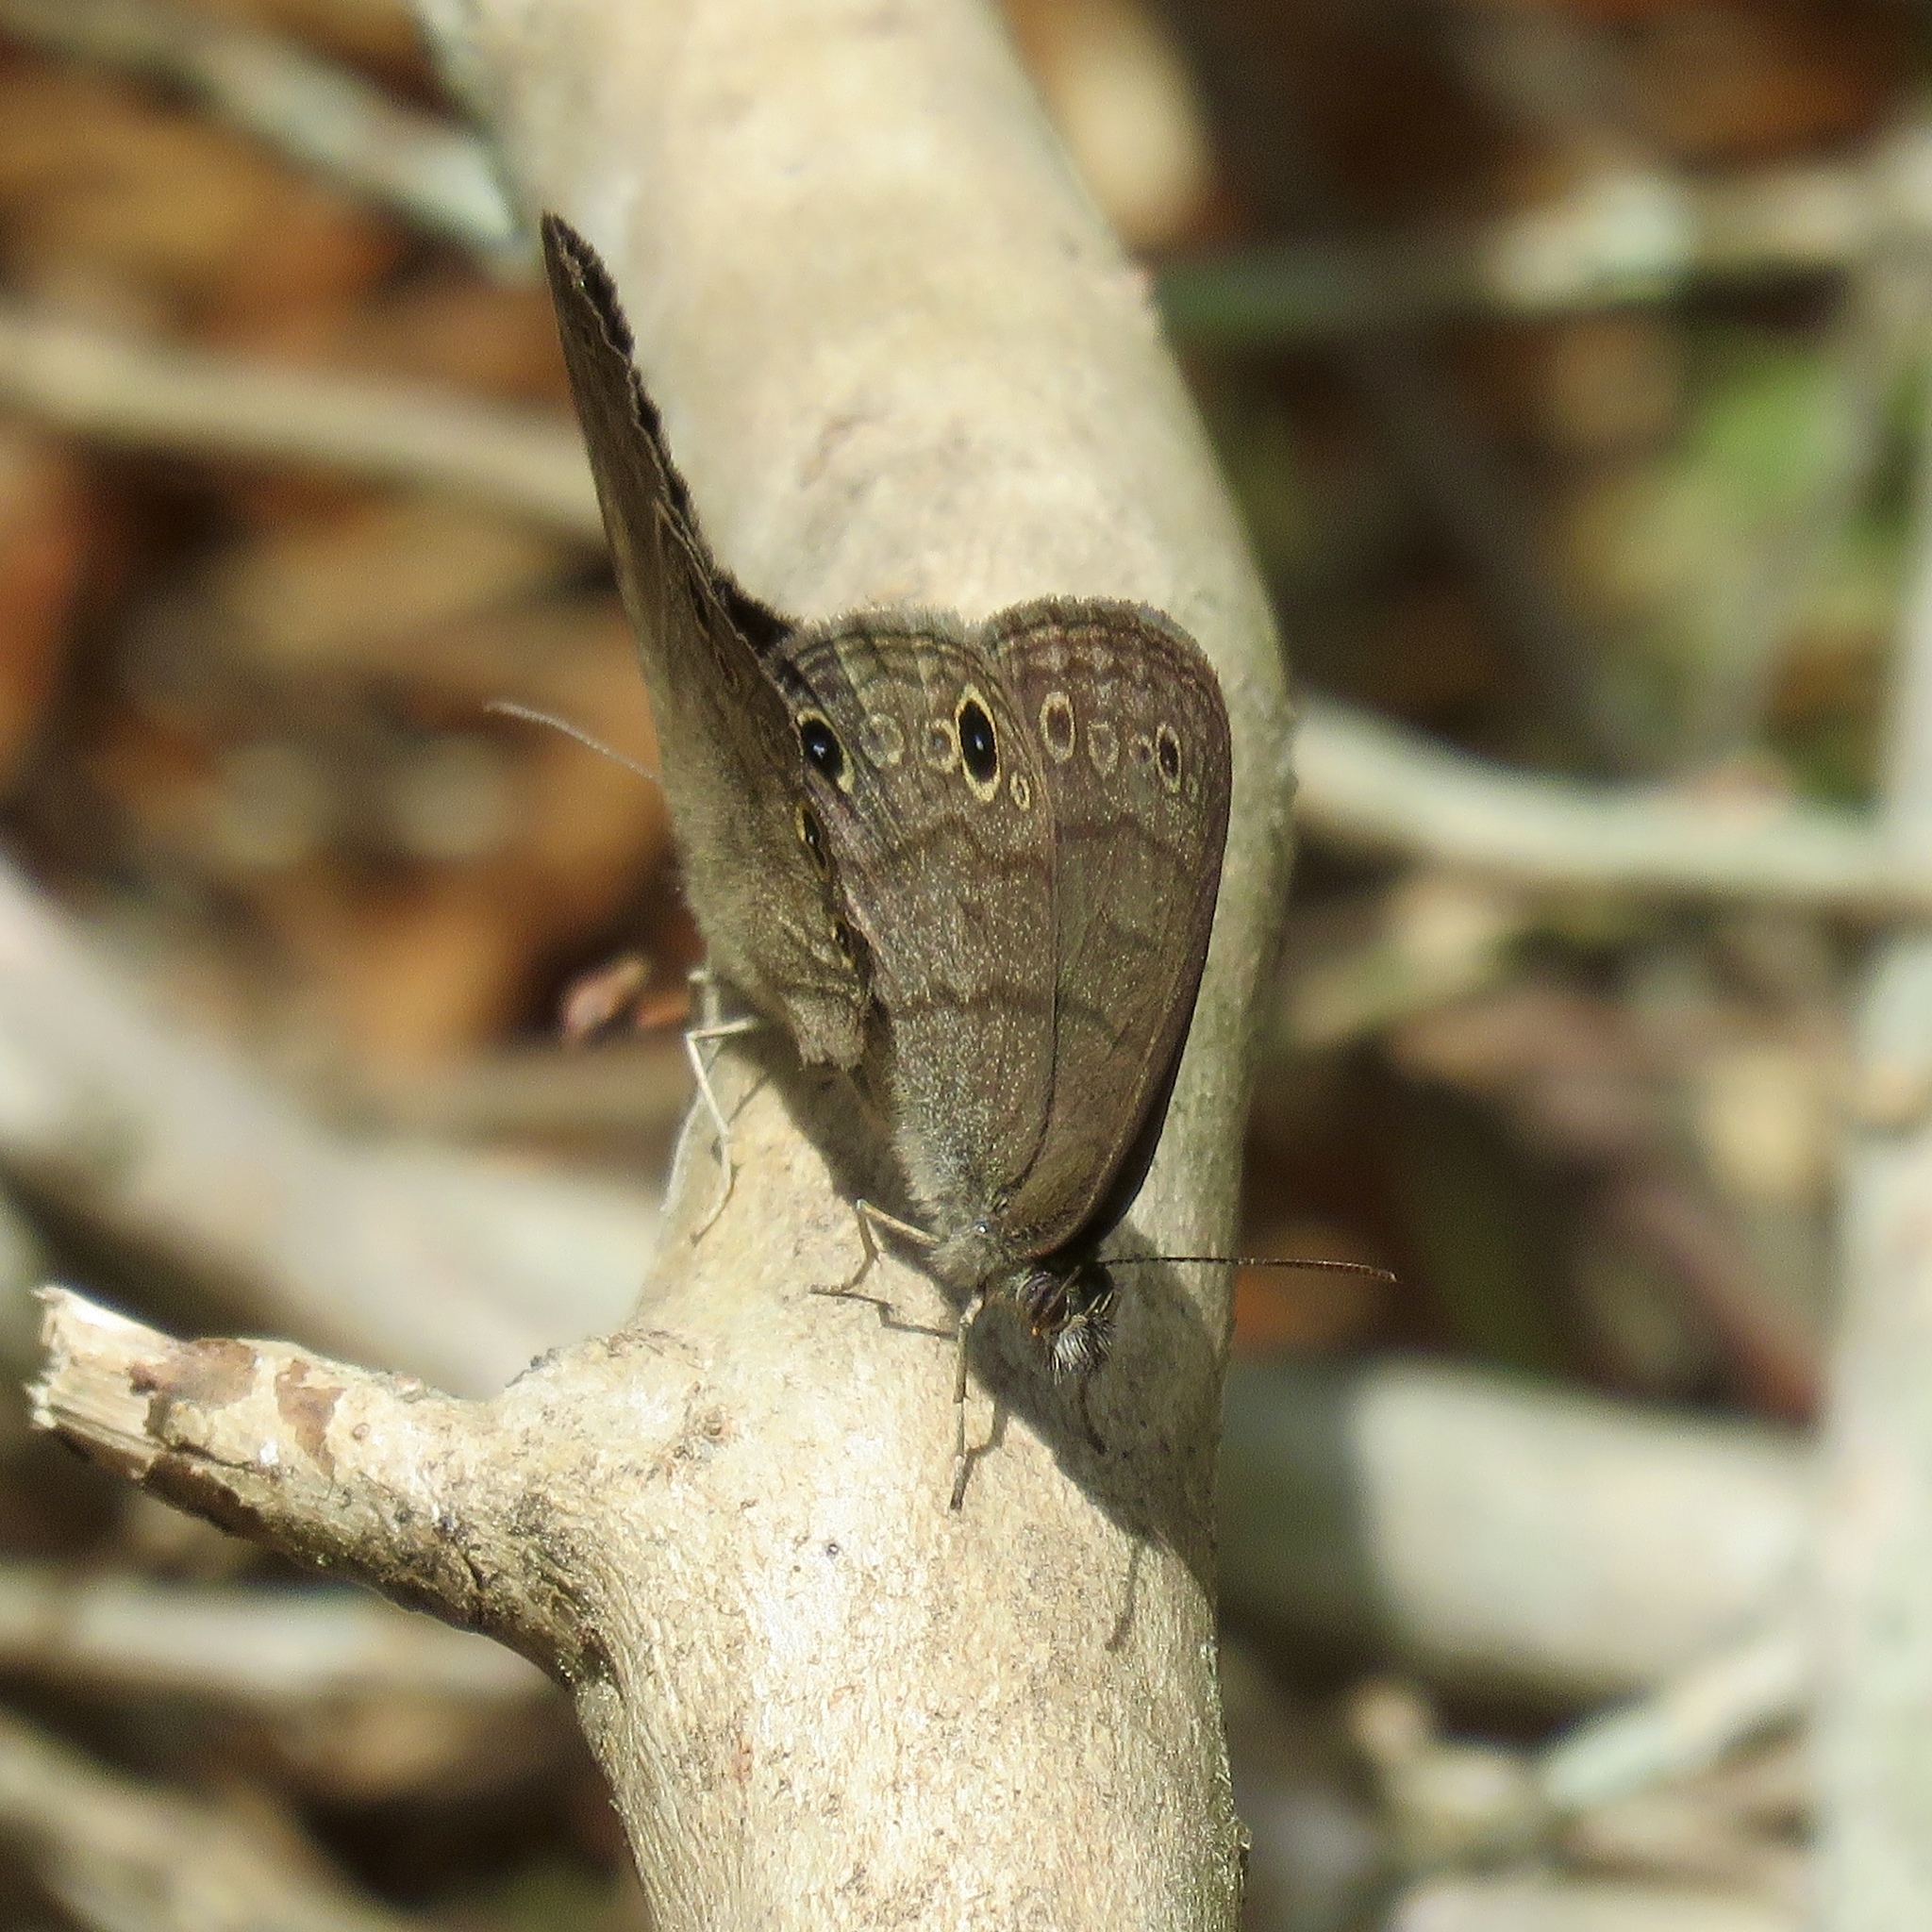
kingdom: Animalia
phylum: Arthropoda
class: Insecta
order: Lepidoptera
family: Nymphalidae
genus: Hermeuptychia
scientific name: Hermeuptychia hermes
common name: Hermes satyr
